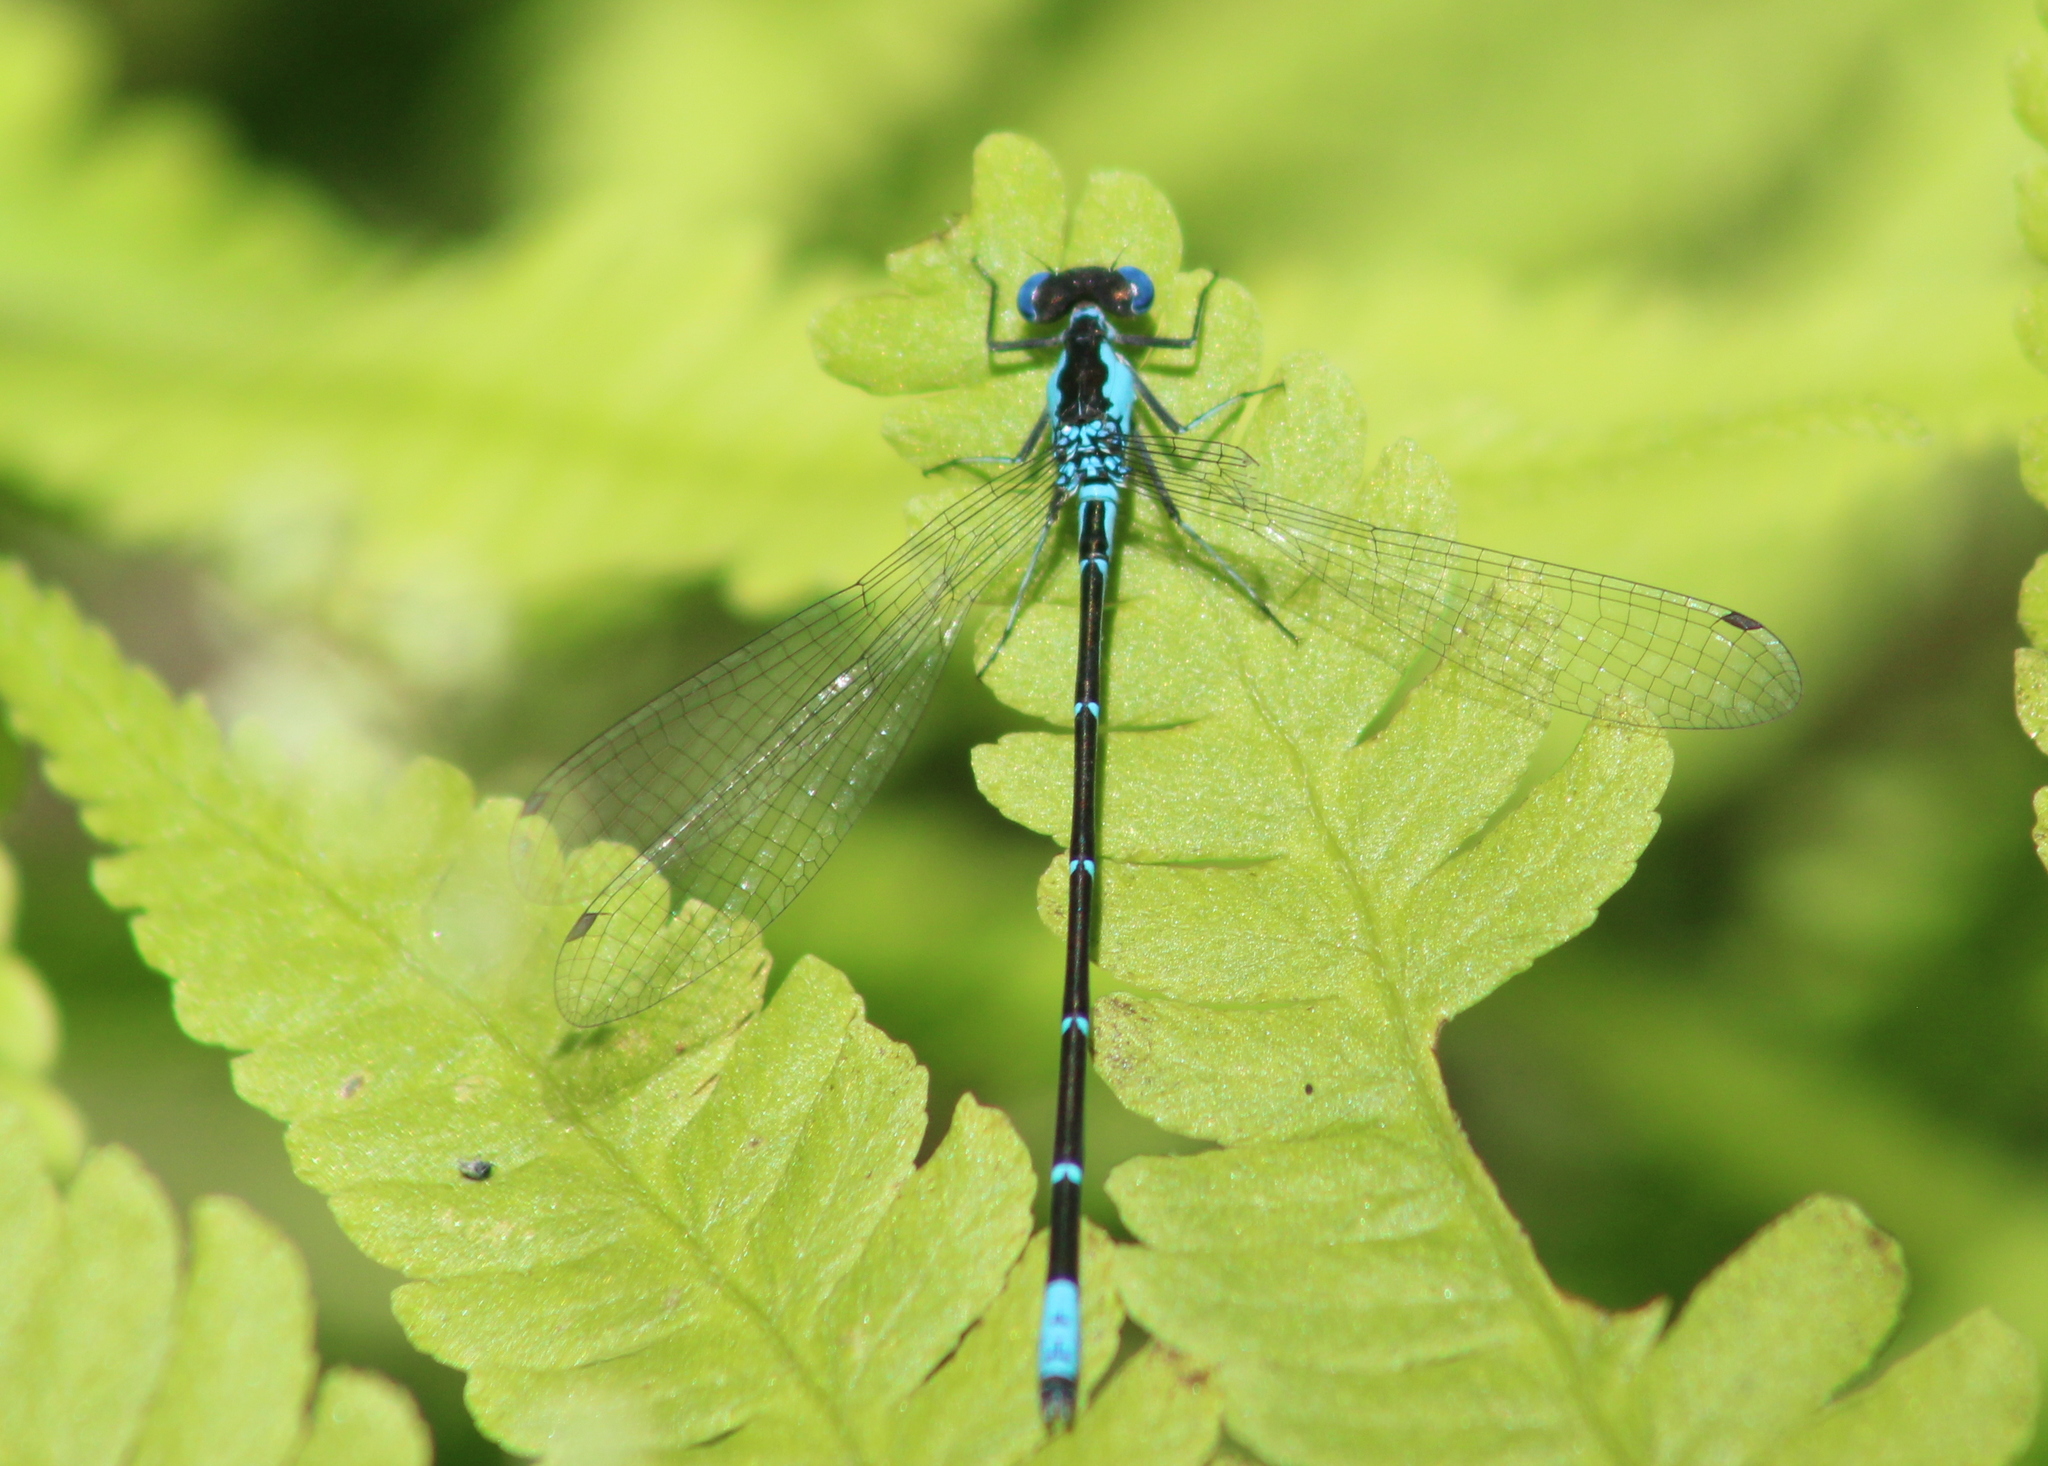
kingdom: Animalia
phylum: Arthropoda
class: Insecta
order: Odonata
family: Coenagrionidae
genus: Chromagrion
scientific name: Chromagrion conditum
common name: Aurora damsel
